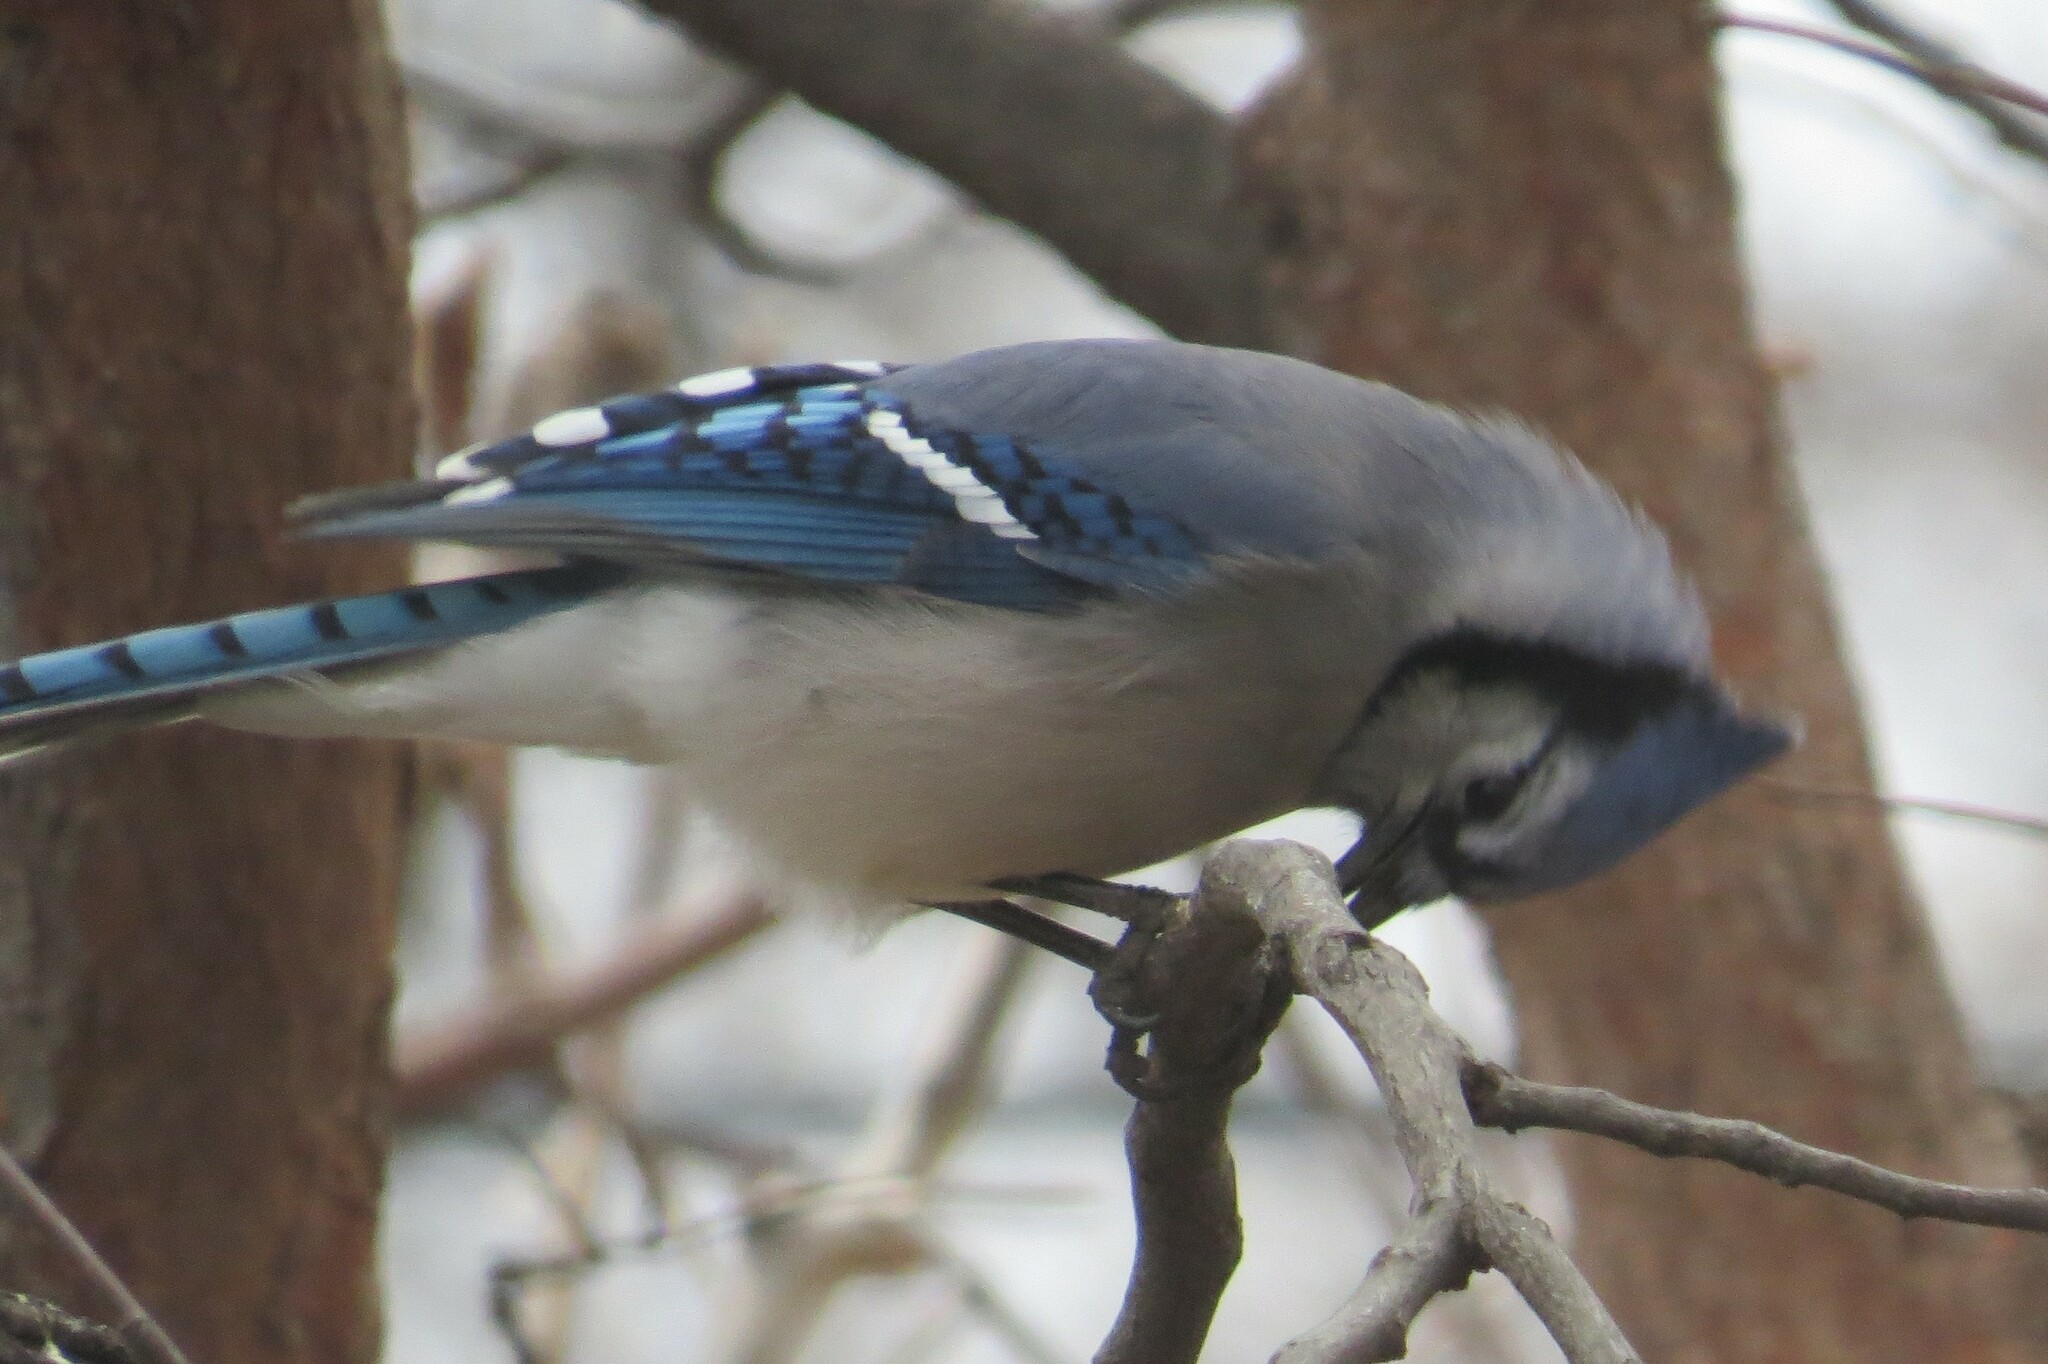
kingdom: Animalia
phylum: Chordata
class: Aves
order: Passeriformes
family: Corvidae
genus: Cyanocitta
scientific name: Cyanocitta cristata
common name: Blue jay
